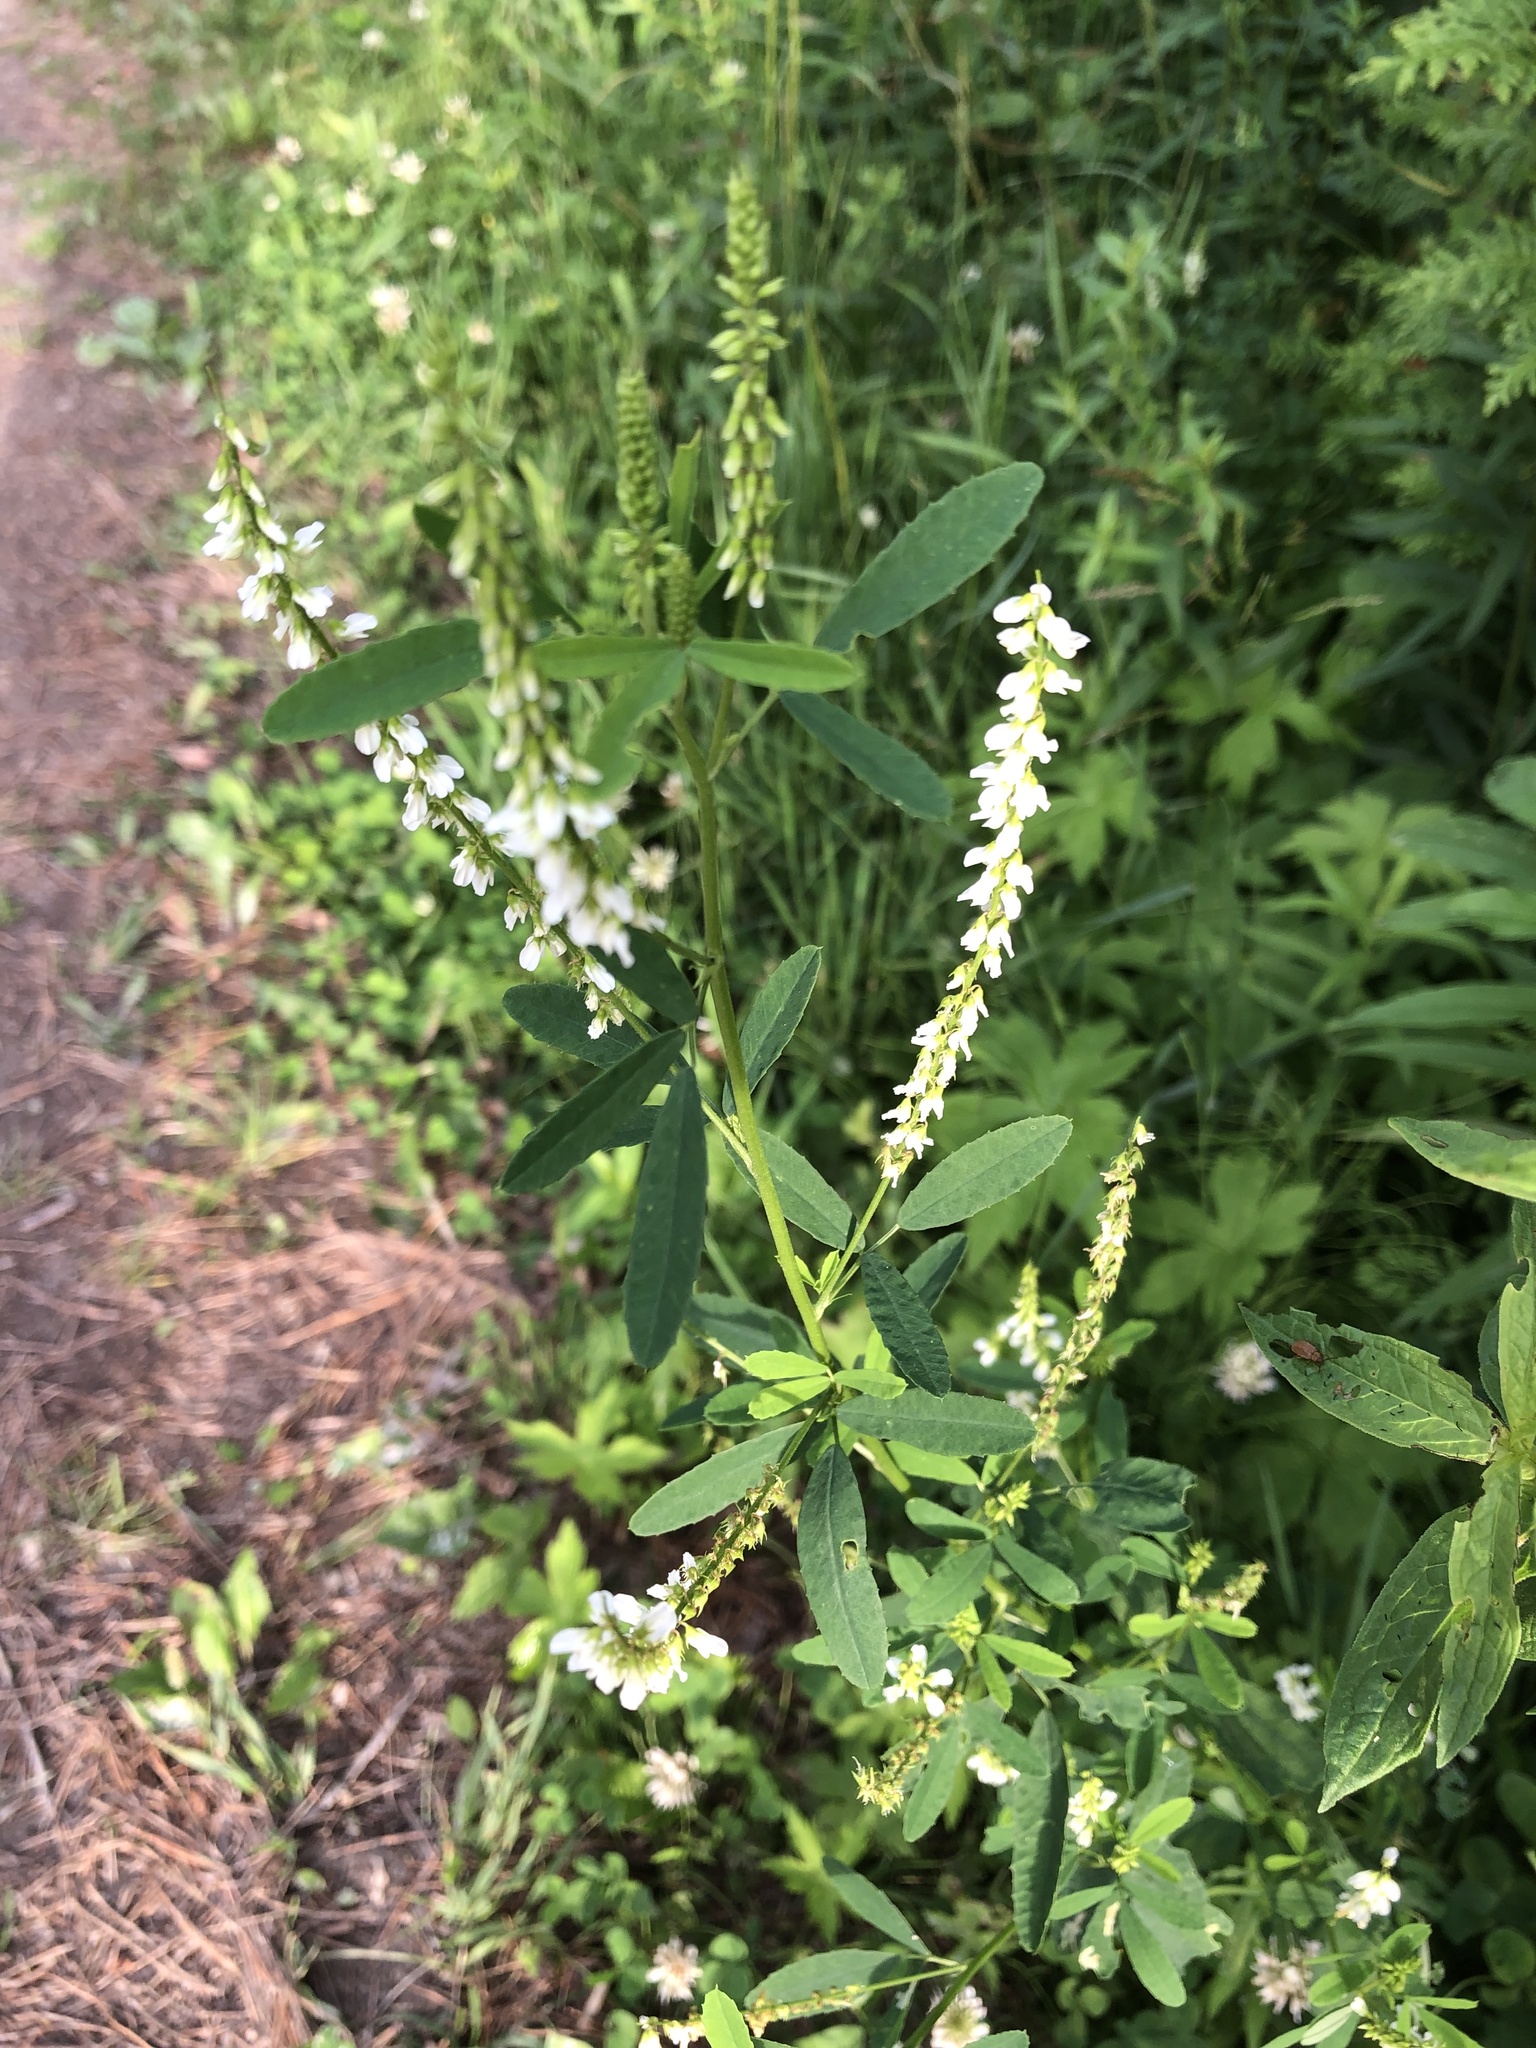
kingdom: Plantae
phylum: Tracheophyta
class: Magnoliopsida
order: Fabales
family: Fabaceae
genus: Melilotus
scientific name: Melilotus albus
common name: White melilot
